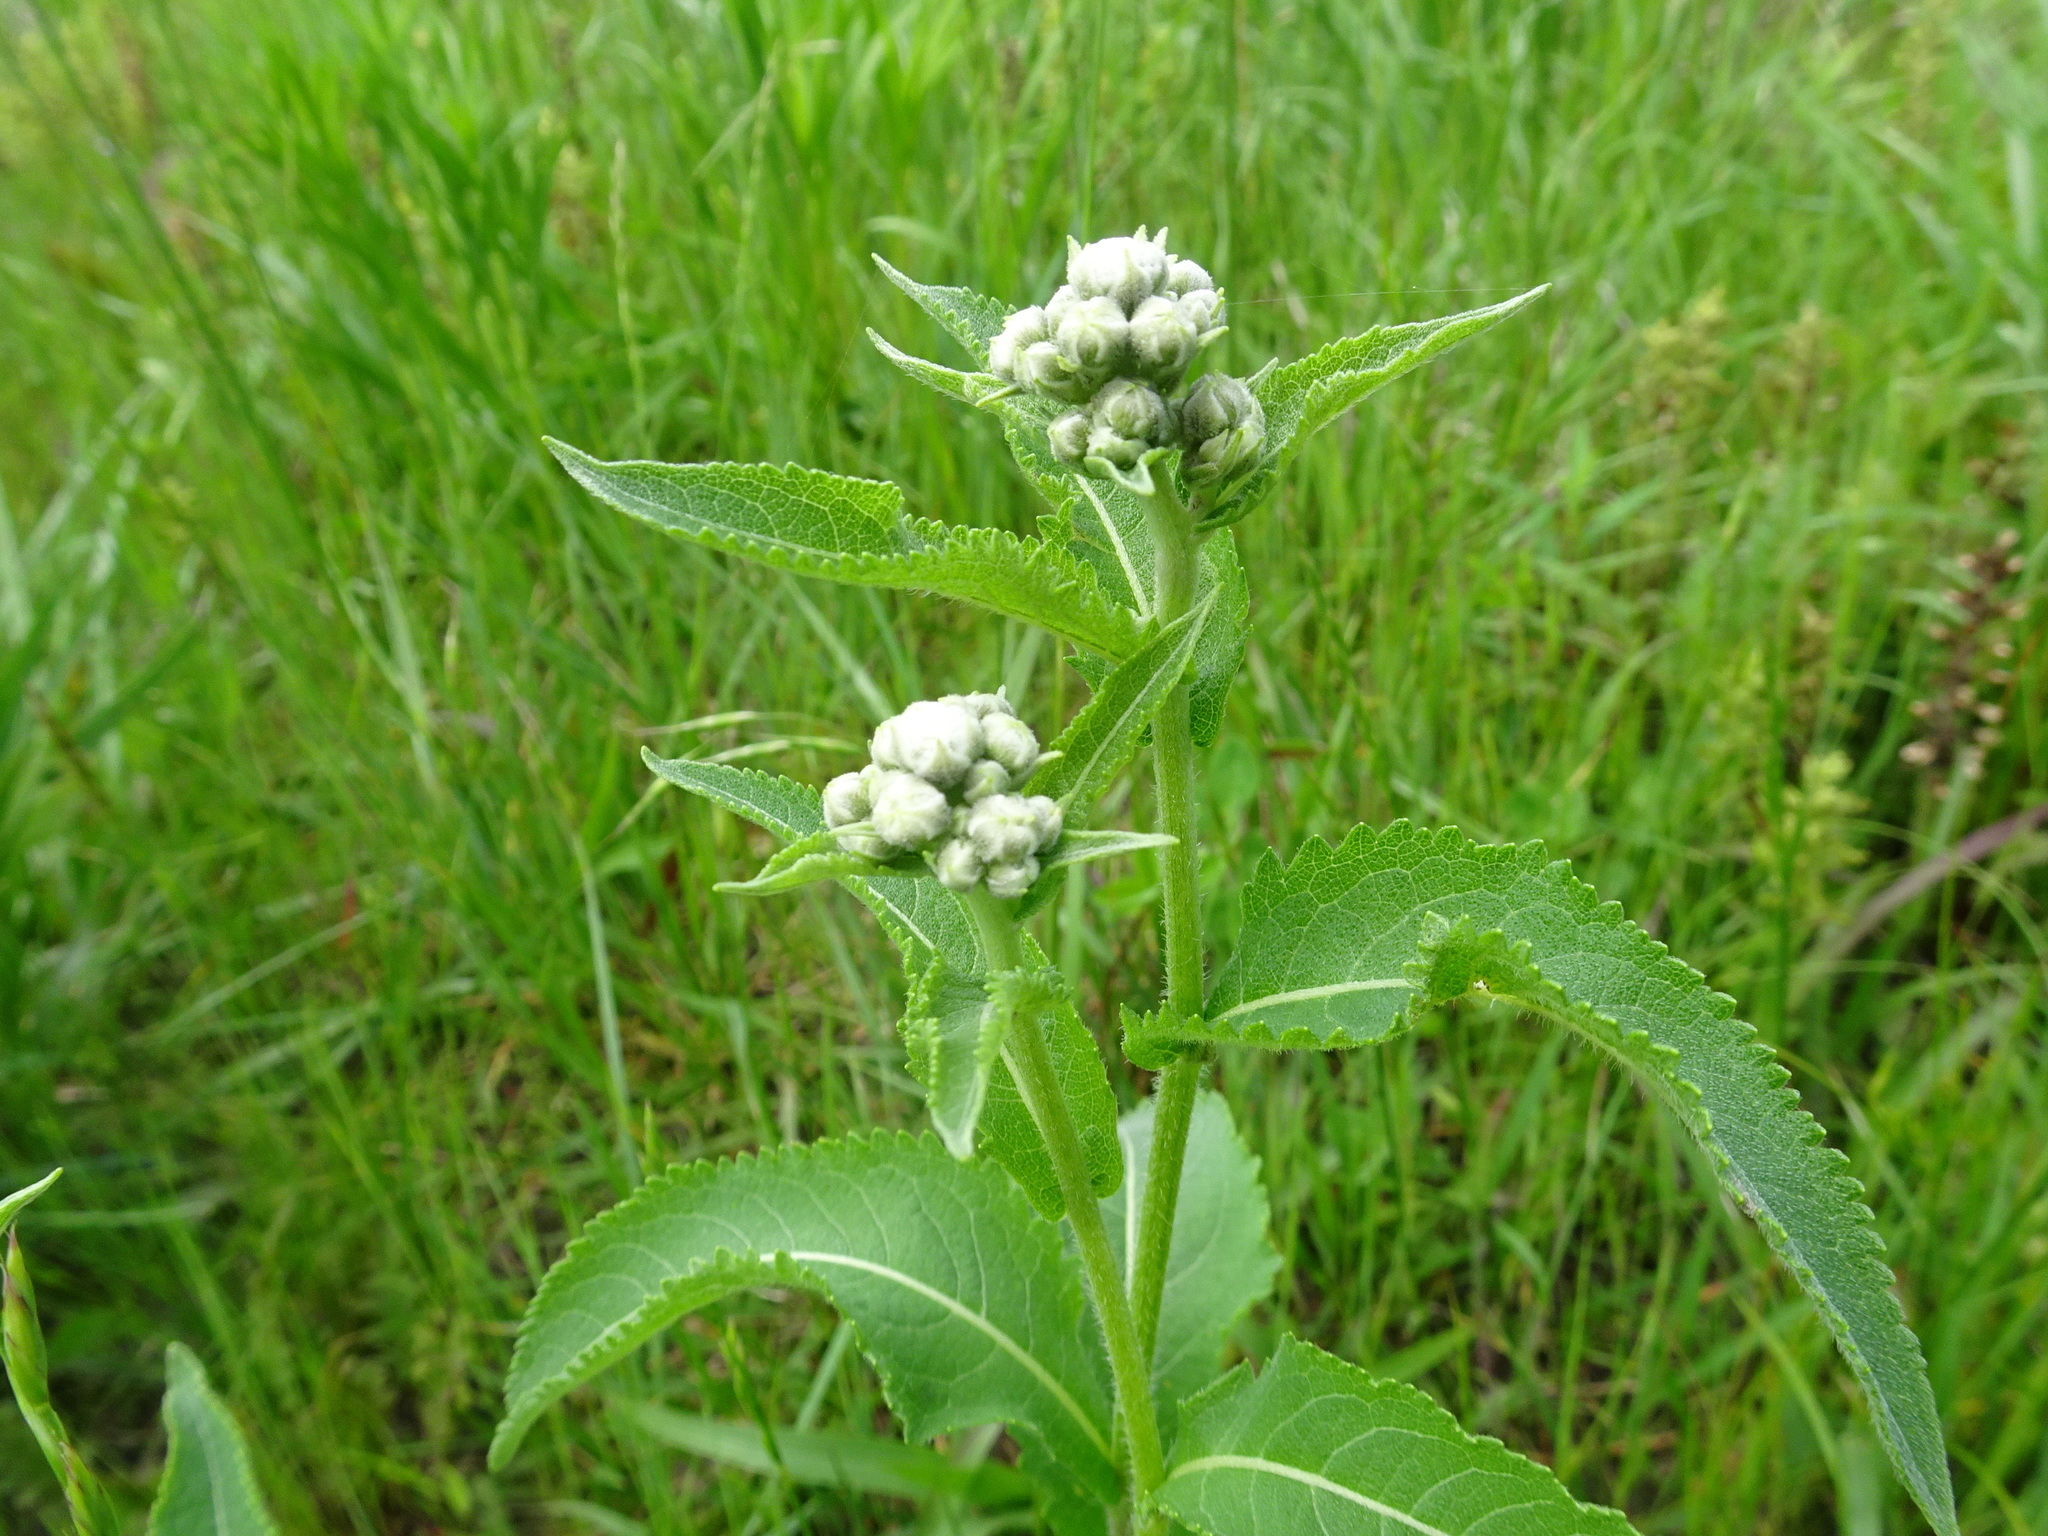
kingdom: Plantae
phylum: Tracheophyta
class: Magnoliopsida
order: Asterales
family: Asteraceae
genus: Parthenium
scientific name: Parthenium integrifolium
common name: American feverfew
